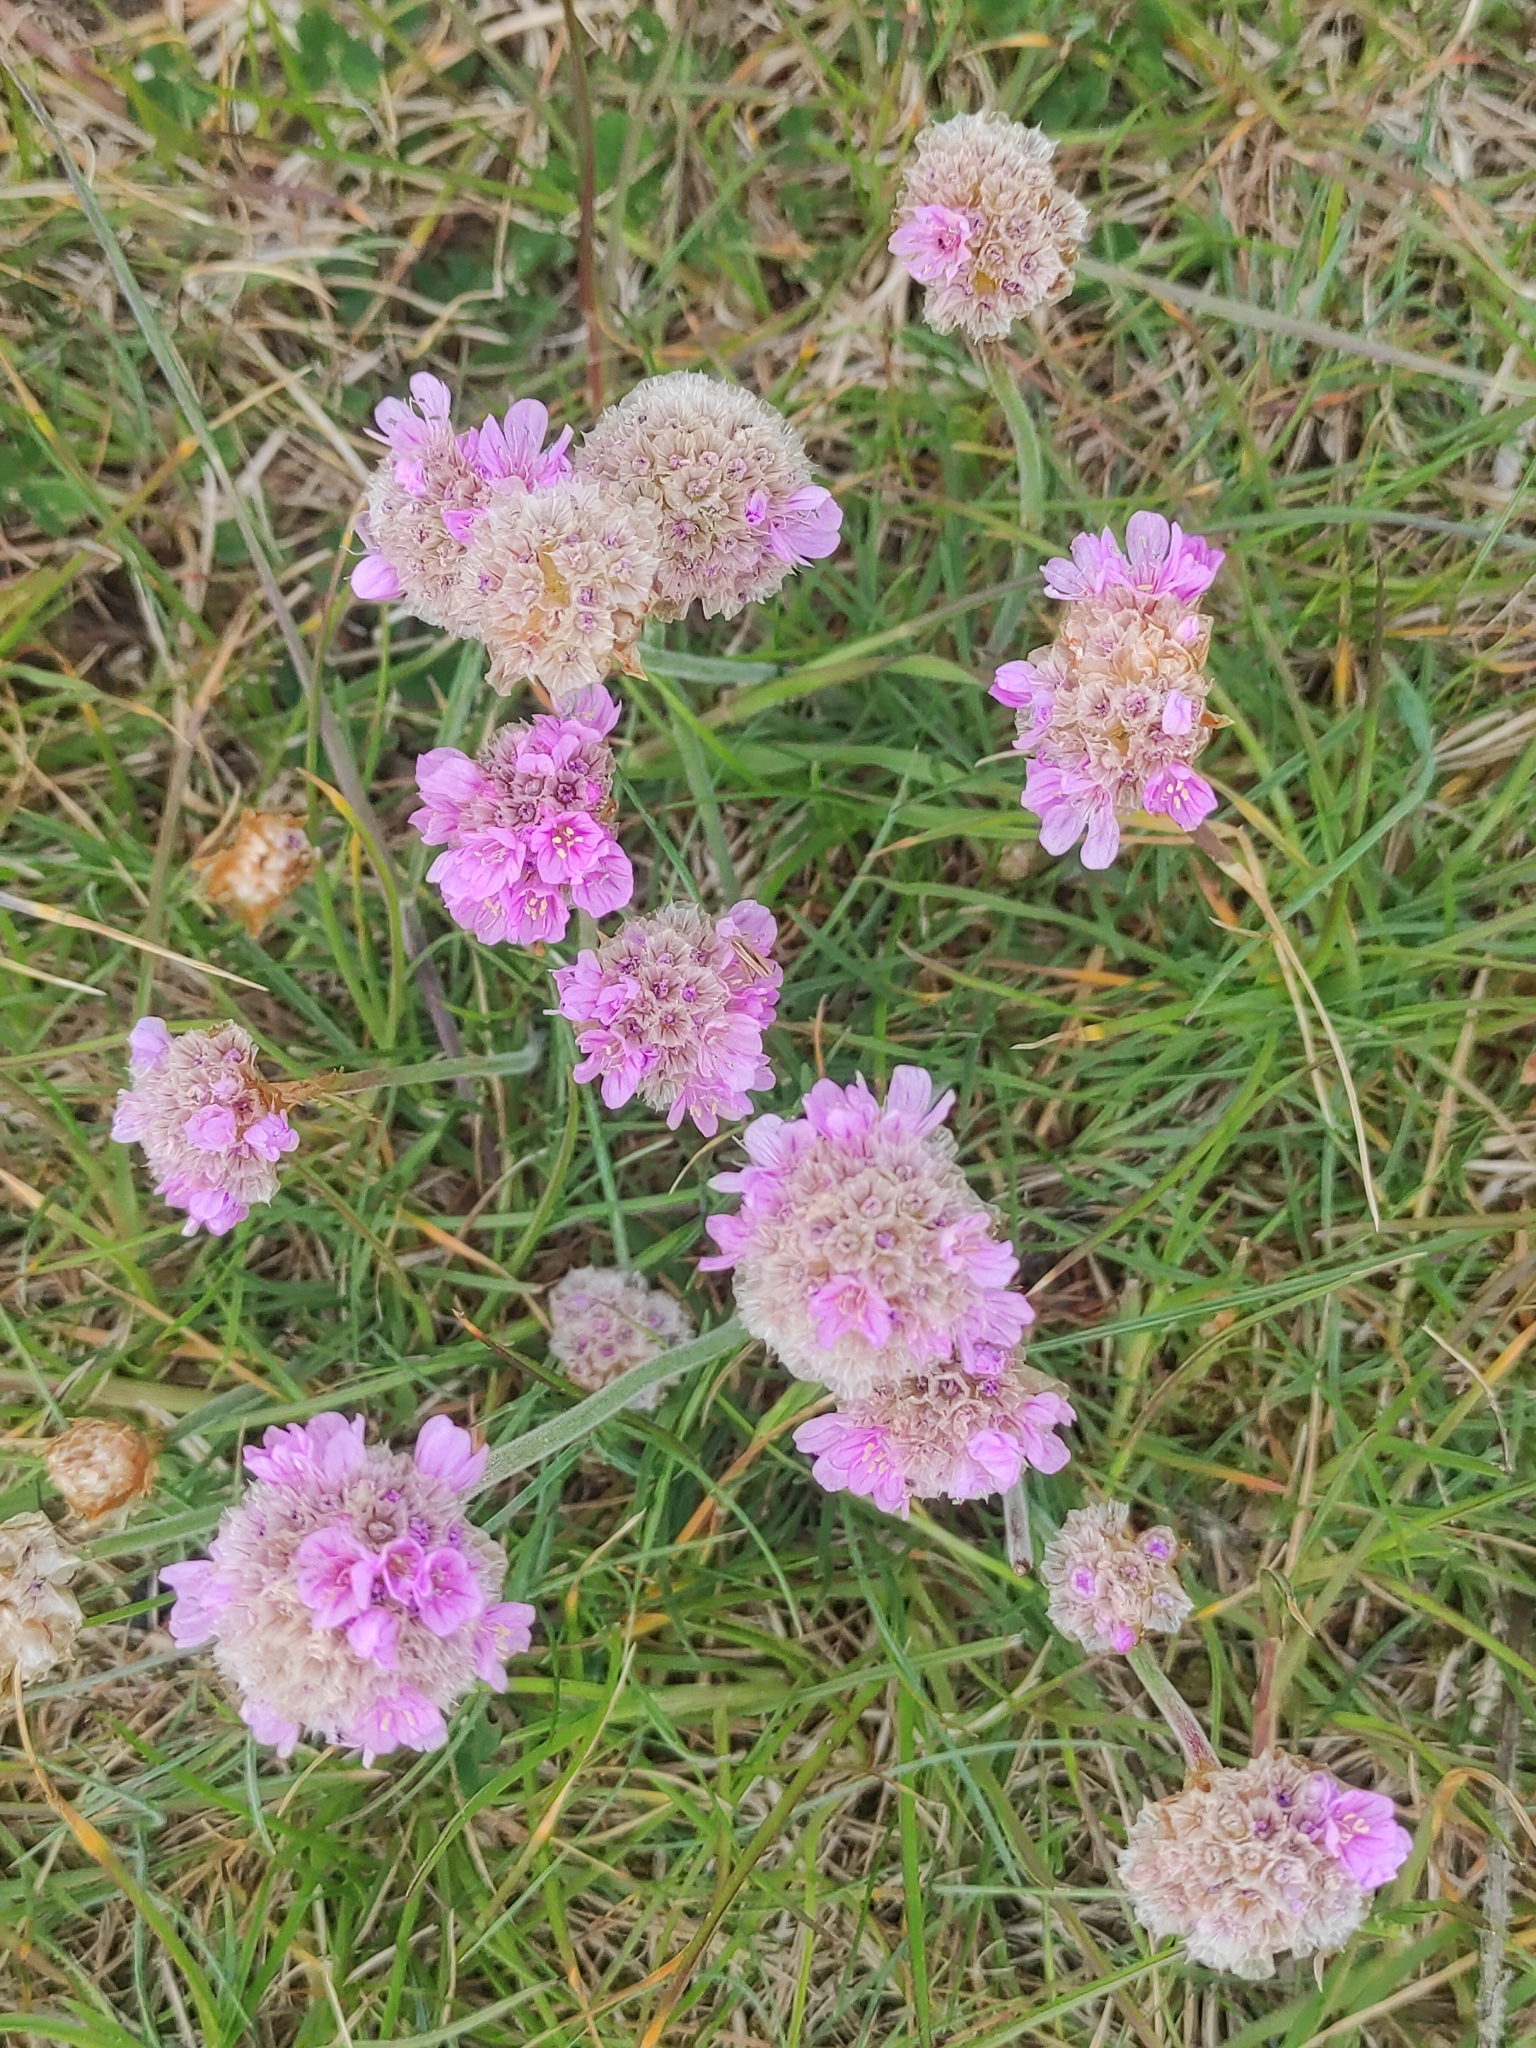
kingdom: Plantae
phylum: Tracheophyta
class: Magnoliopsida
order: Caryophyllales
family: Plumbaginaceae
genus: Armeria
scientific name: Armeria maritima
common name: Thrift
